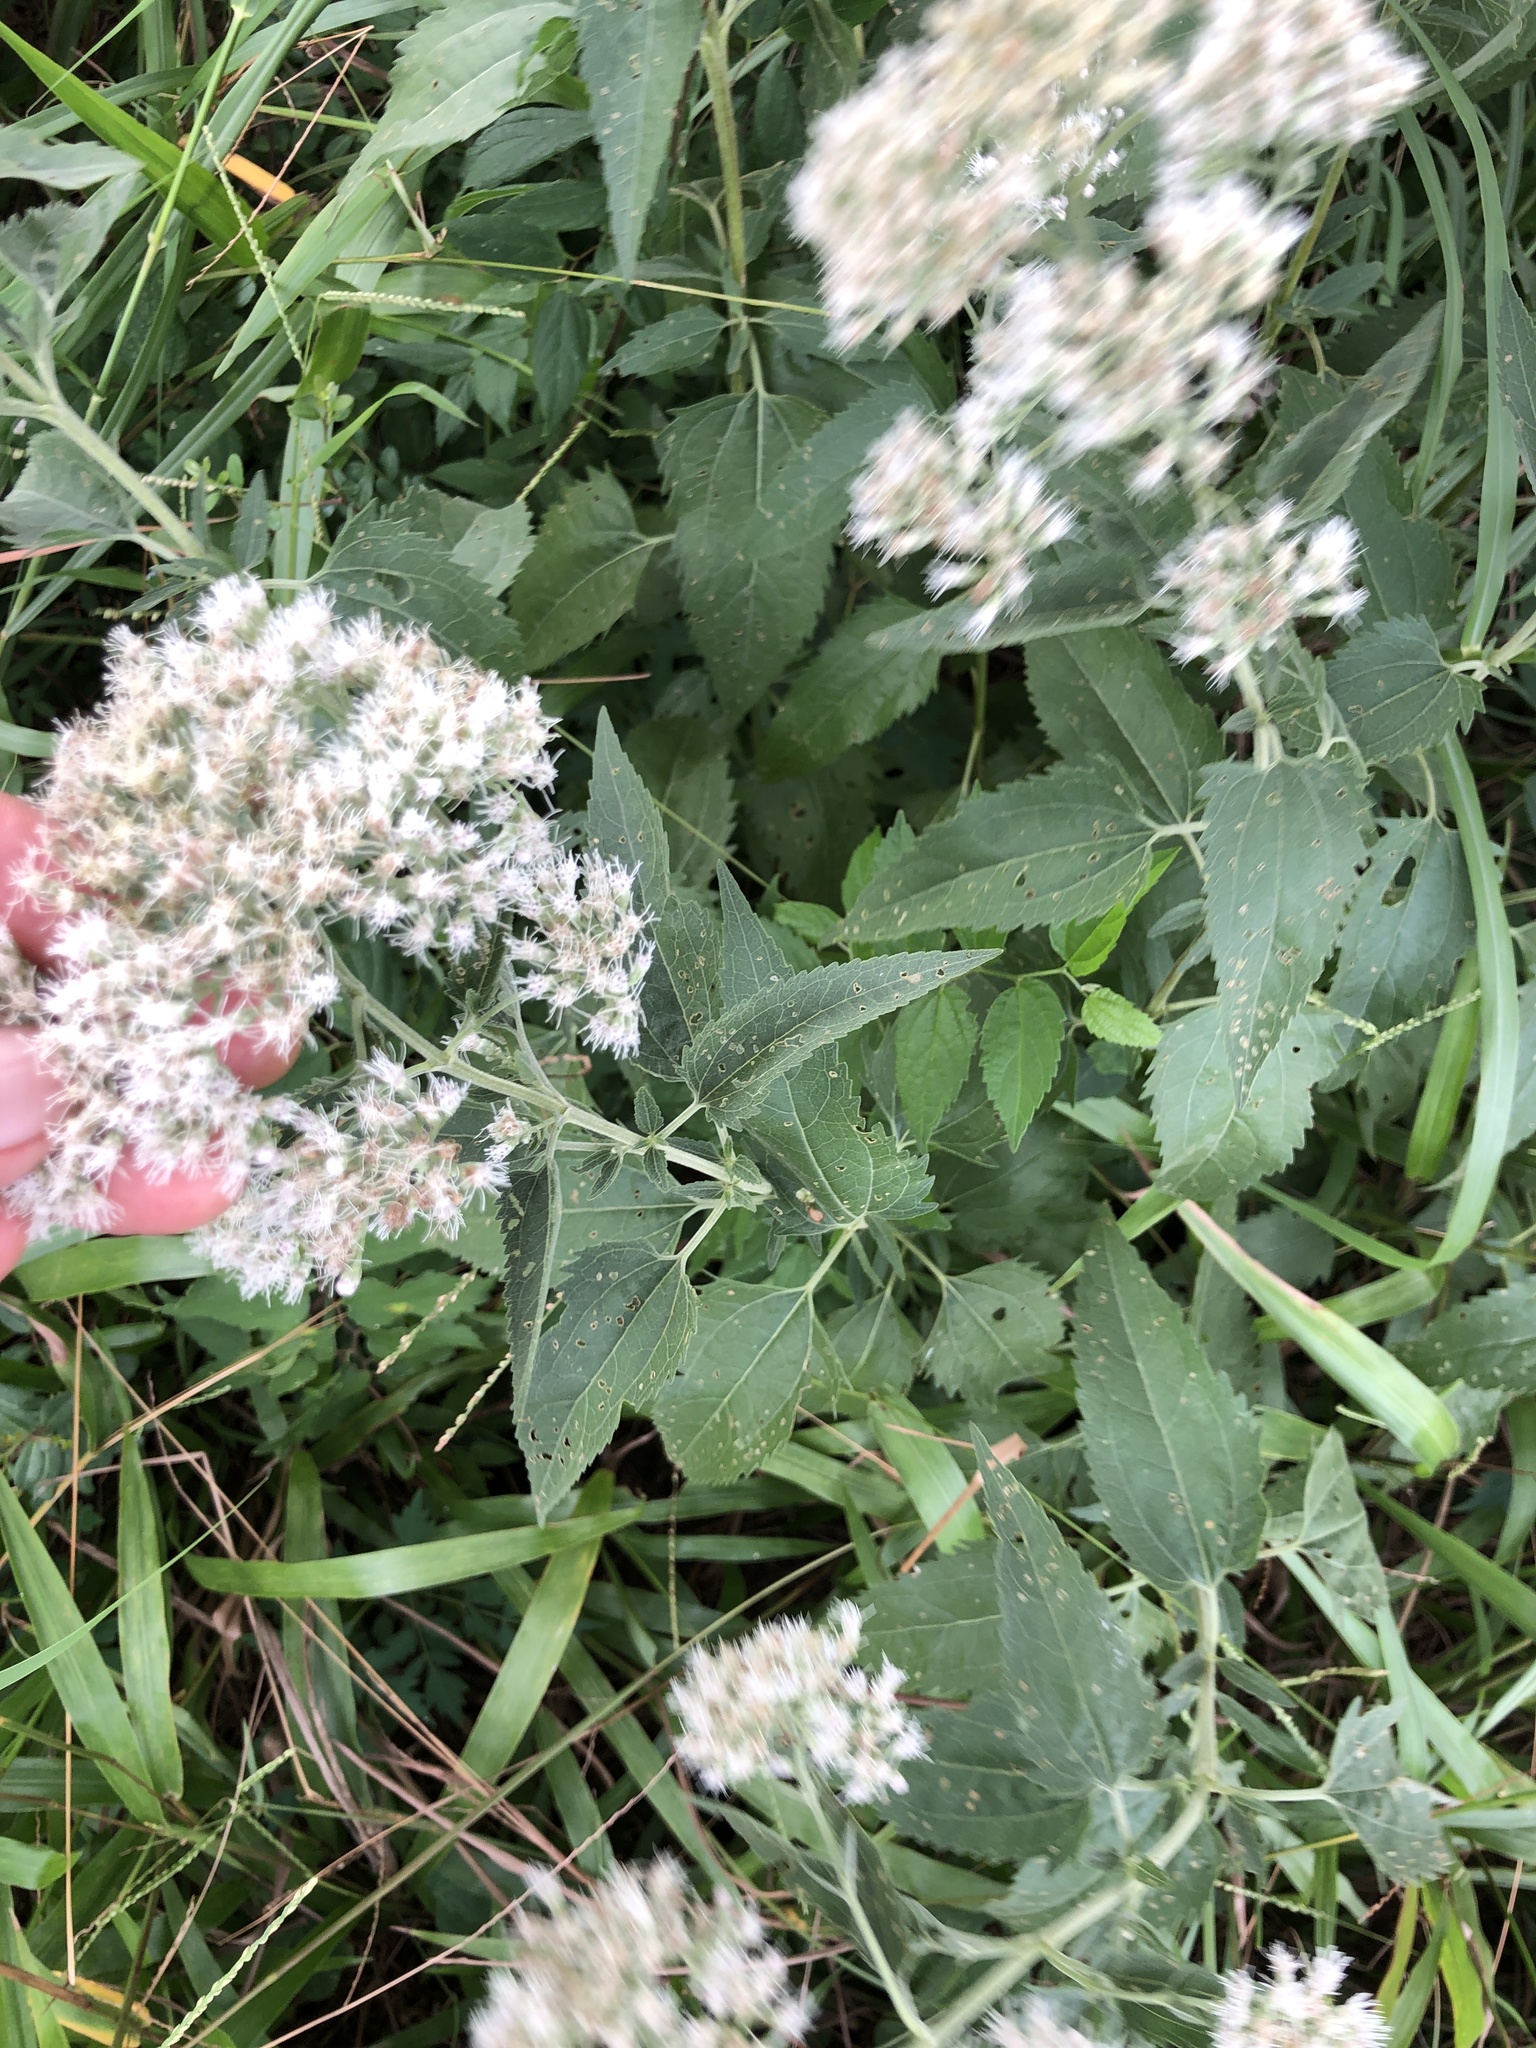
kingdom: Plantae
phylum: Tracheophyta
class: Magnoliopsida
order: Asterales
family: Asteraceae
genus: Eupatorium
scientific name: Eupatorium serotinum
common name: Late boneset
